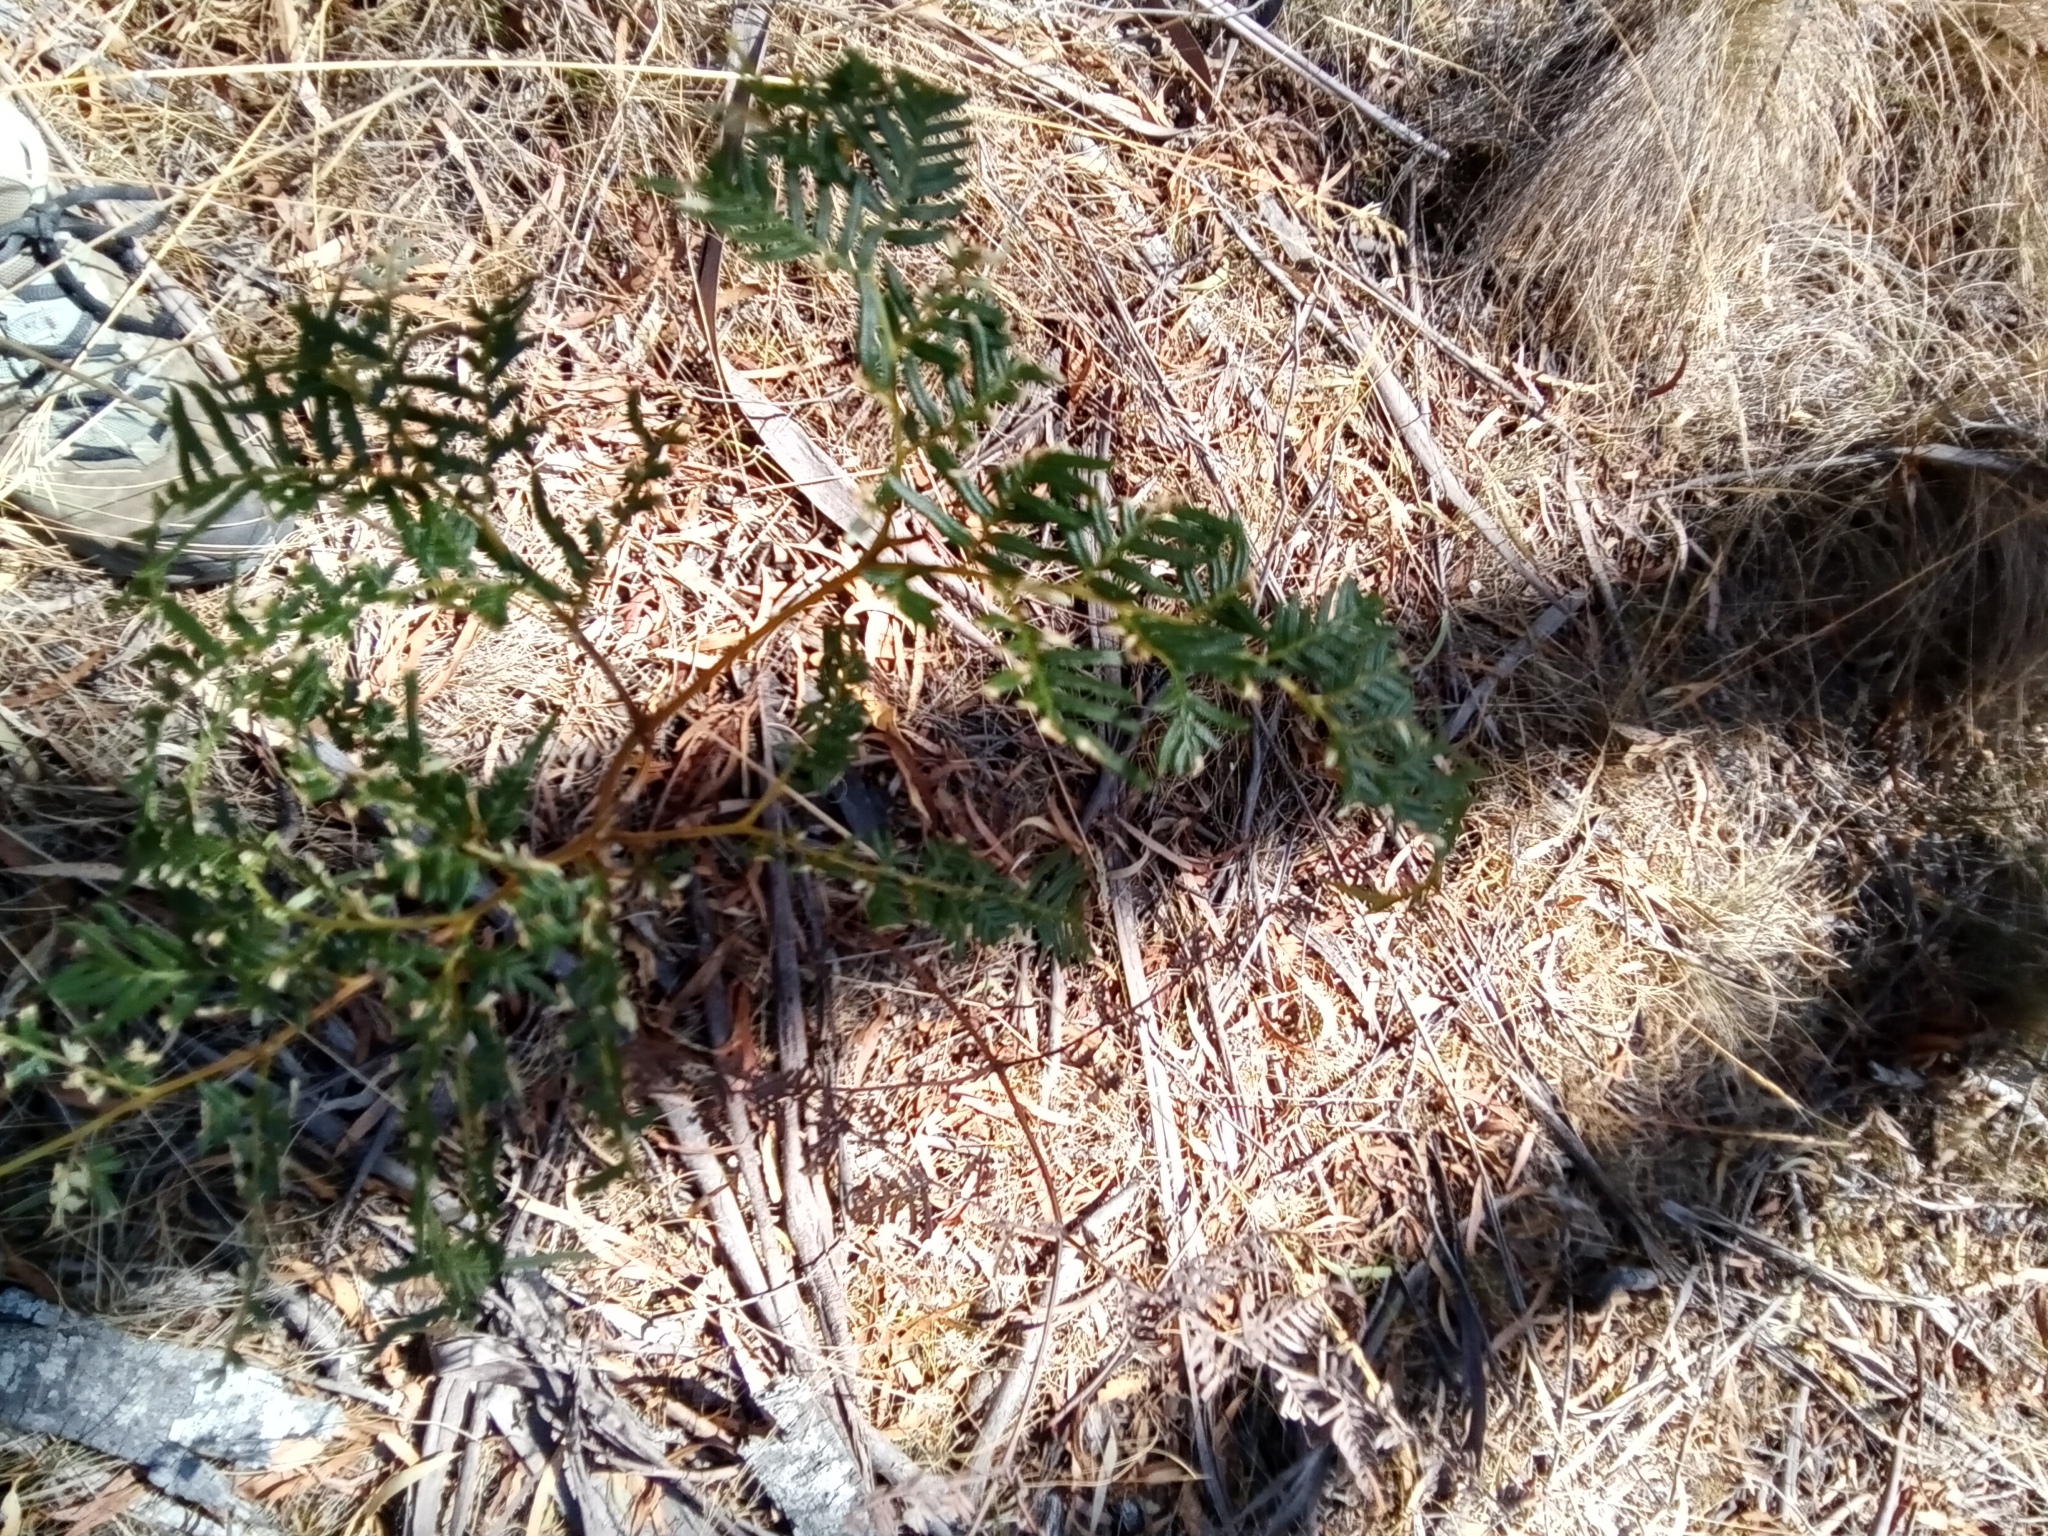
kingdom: Plantae
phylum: Tracheophyta
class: Polypodiopsida
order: Polypodiales
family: Dennstaedtiaceae
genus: Pteridium
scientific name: Pteridium esculentum
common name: Bracken fern
